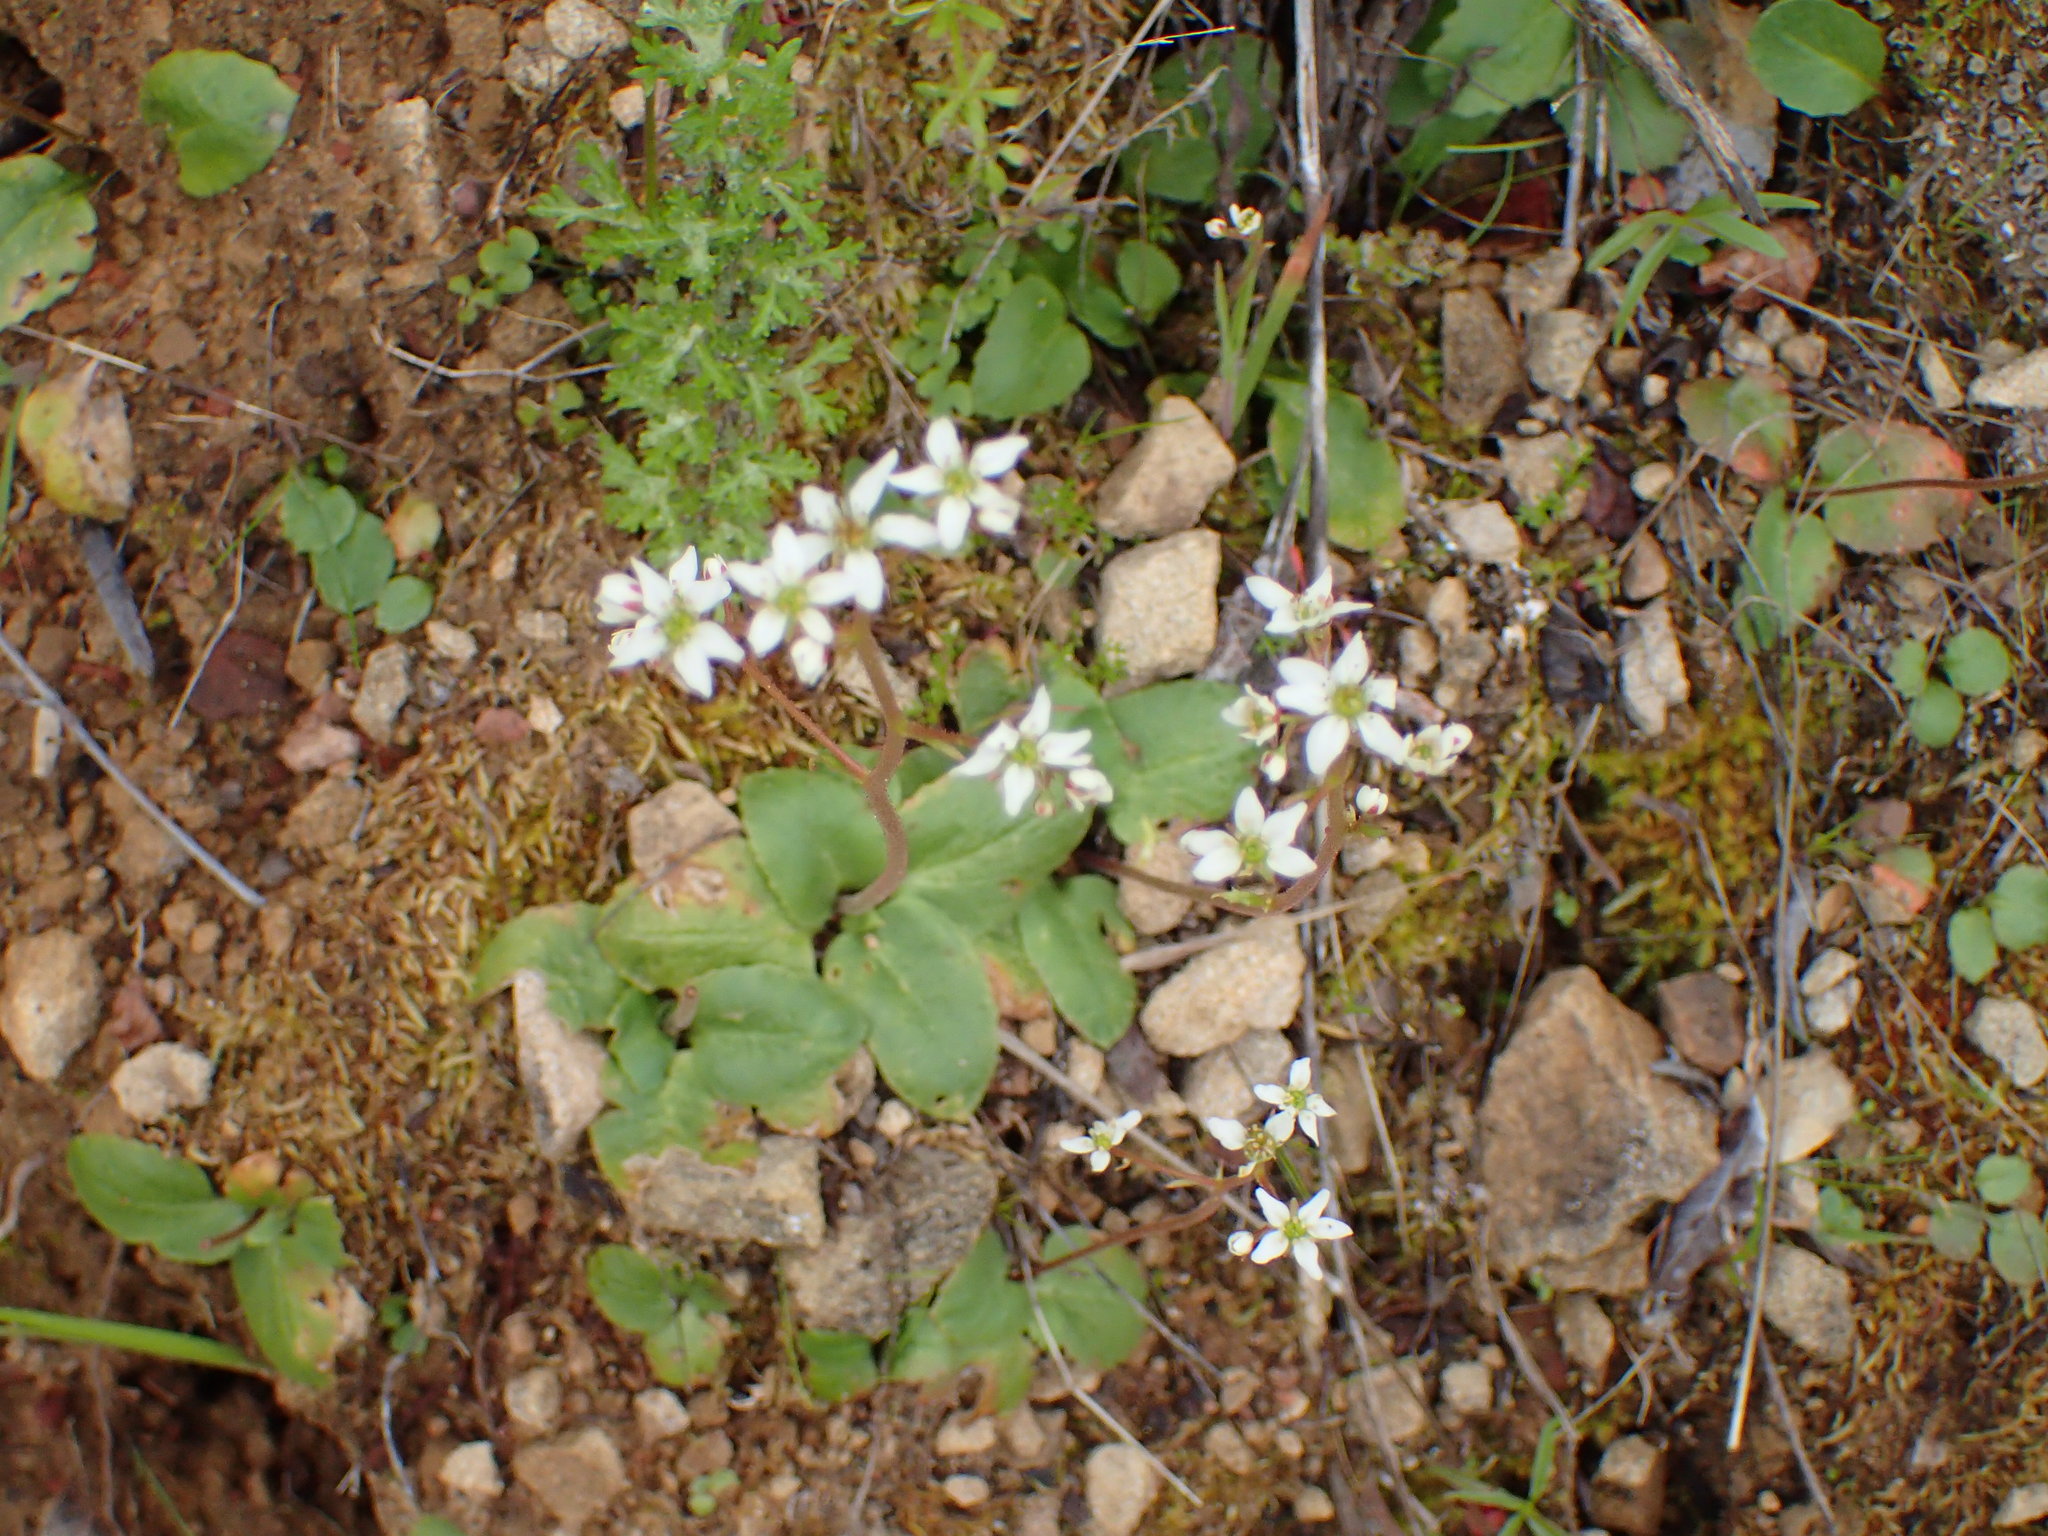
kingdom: Plantae
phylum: Tracheophyta
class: Magnoliopsida
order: Saxifragales
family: Saxifragaceae
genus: Micranthes
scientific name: Micranthes californica
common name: California saxifrage
